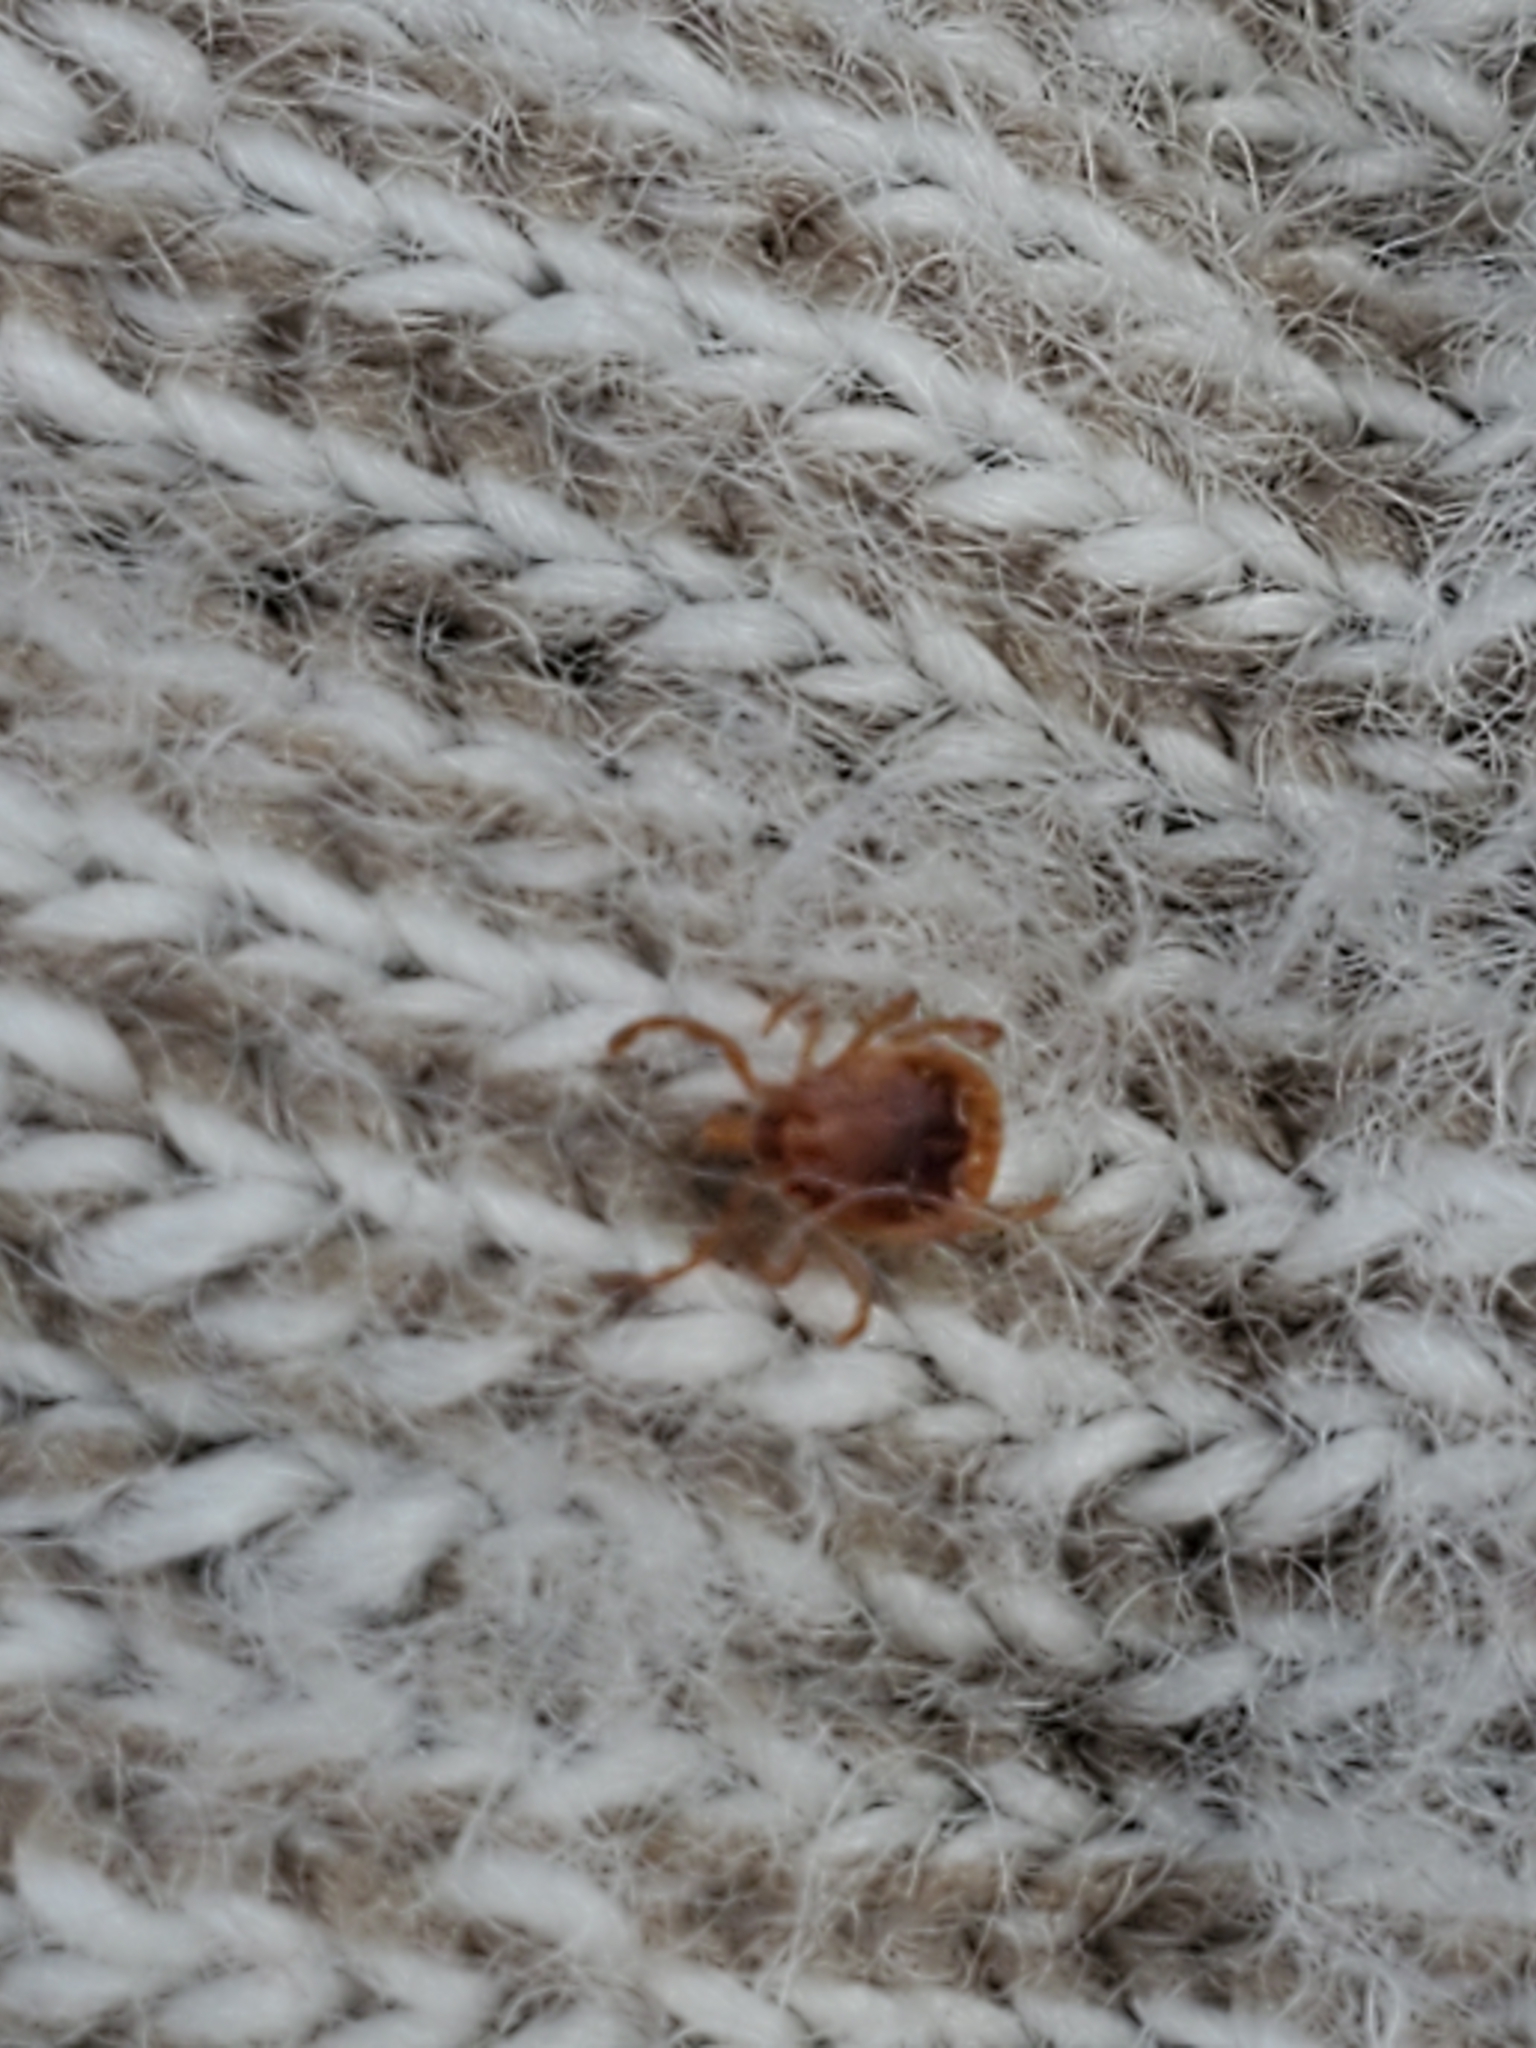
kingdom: Animalia
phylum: Arthropoda
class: Arachnida
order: Ixodida
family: Ixodidae
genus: Amblyomma
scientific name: Amblyomma americanum
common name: Lone star tick
